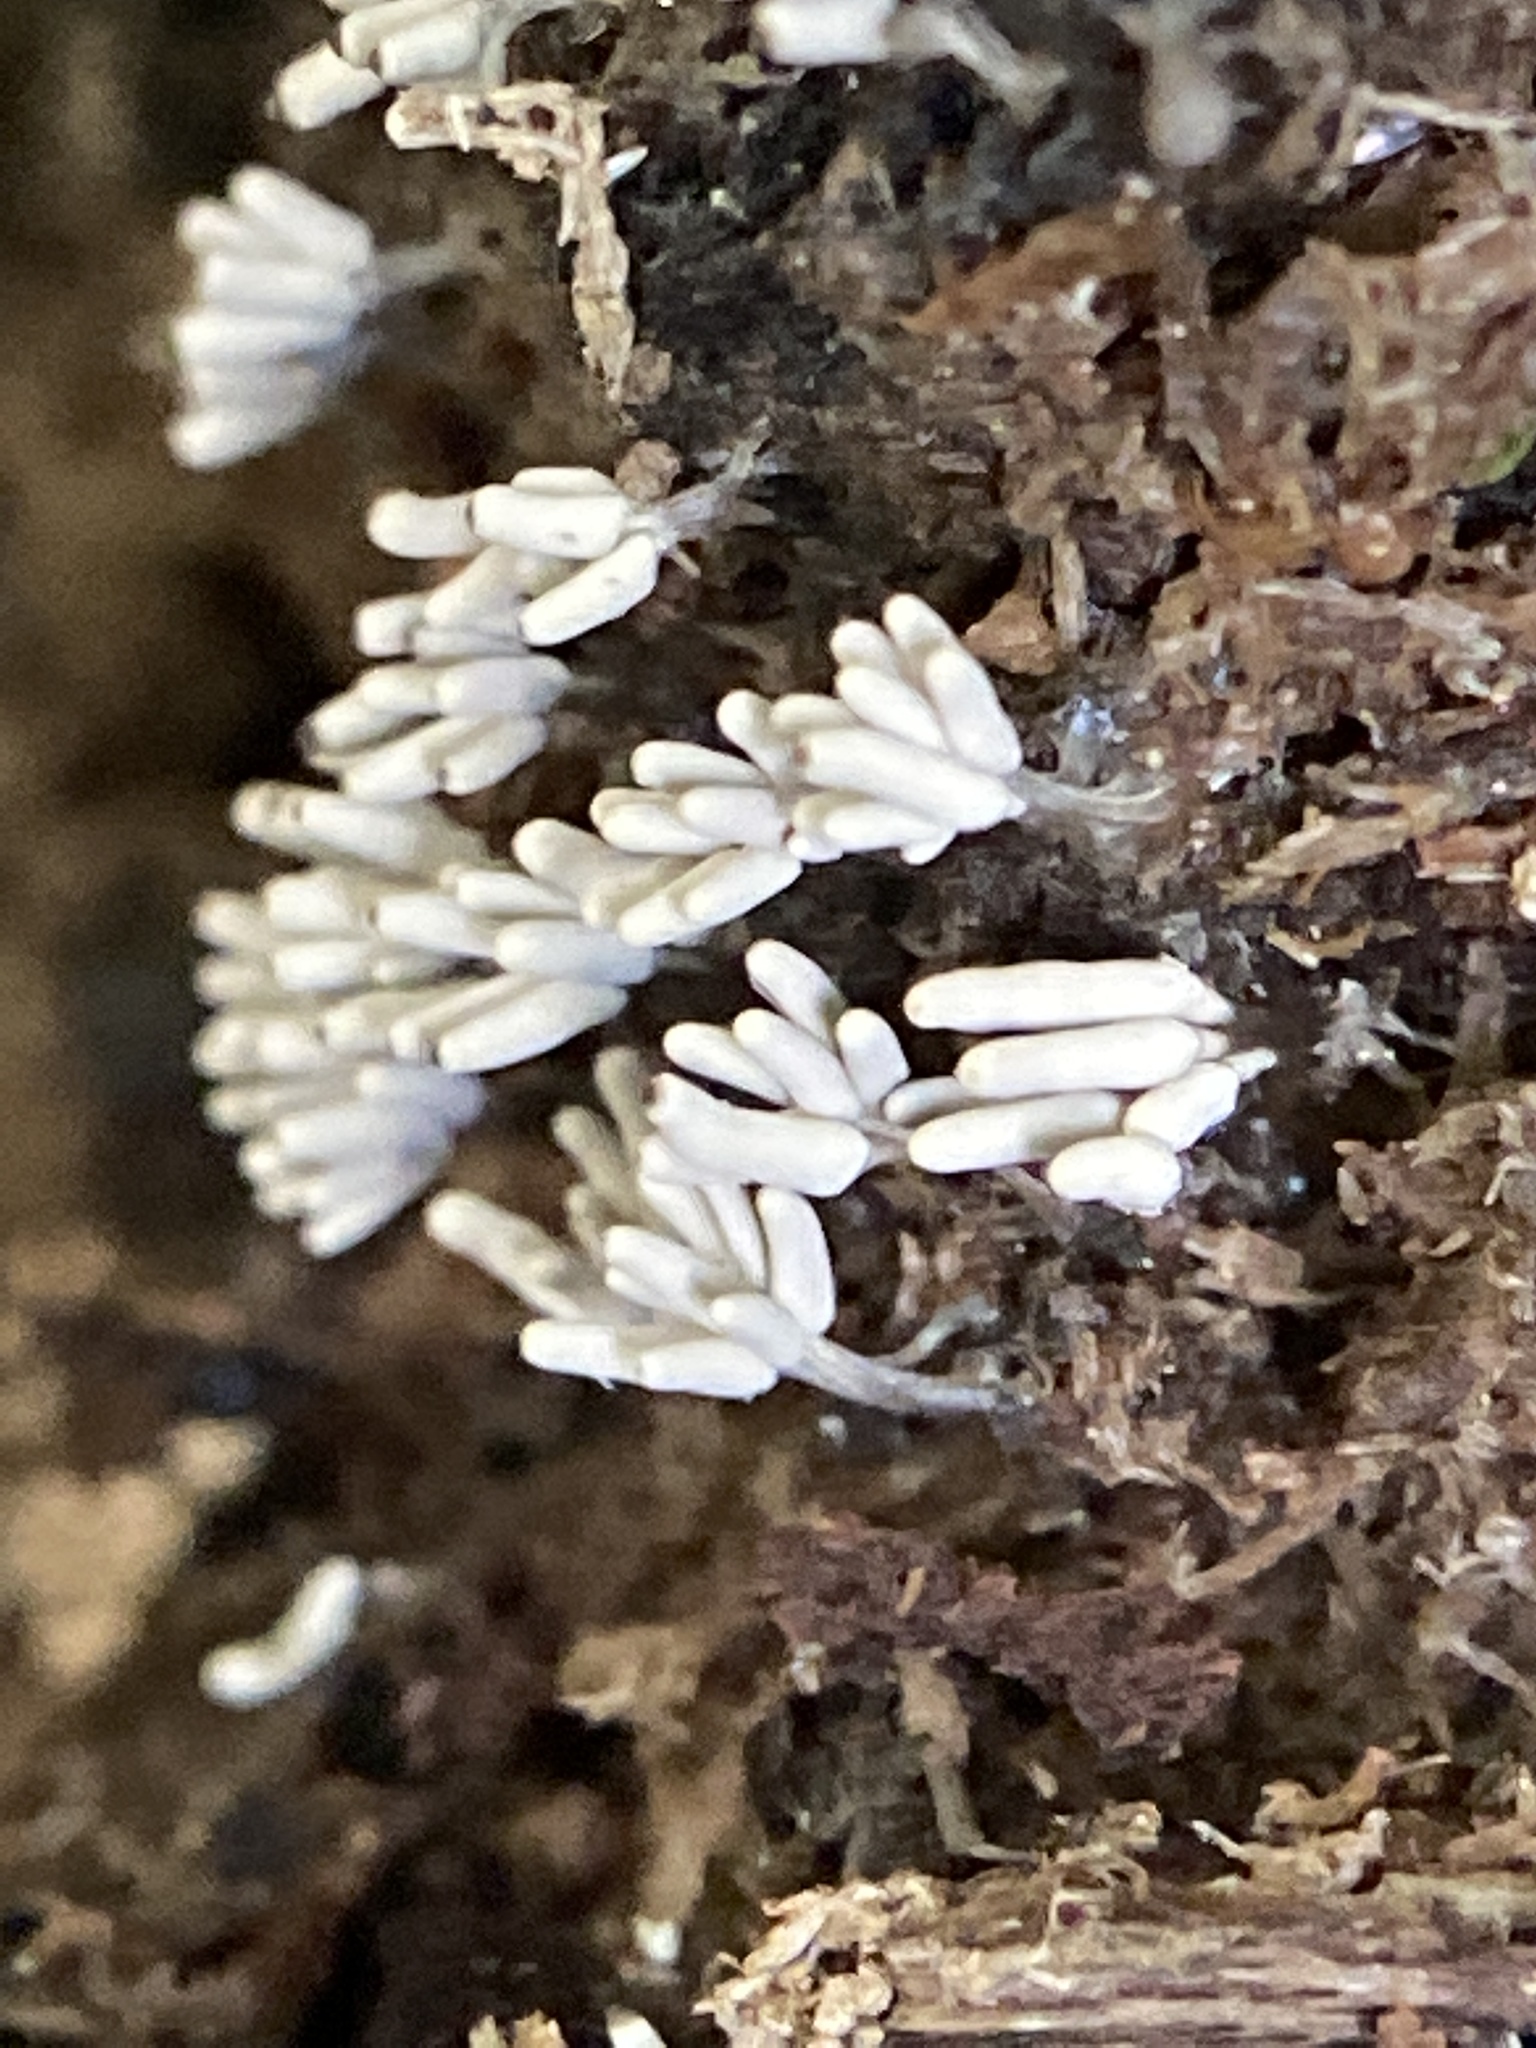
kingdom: Protozoa
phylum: Mycetozoa
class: Myxomycetes
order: Trichiales
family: Arcyriaceae
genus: Arcyria
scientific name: Arcyria cinerea
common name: White carnival candy slime mold
